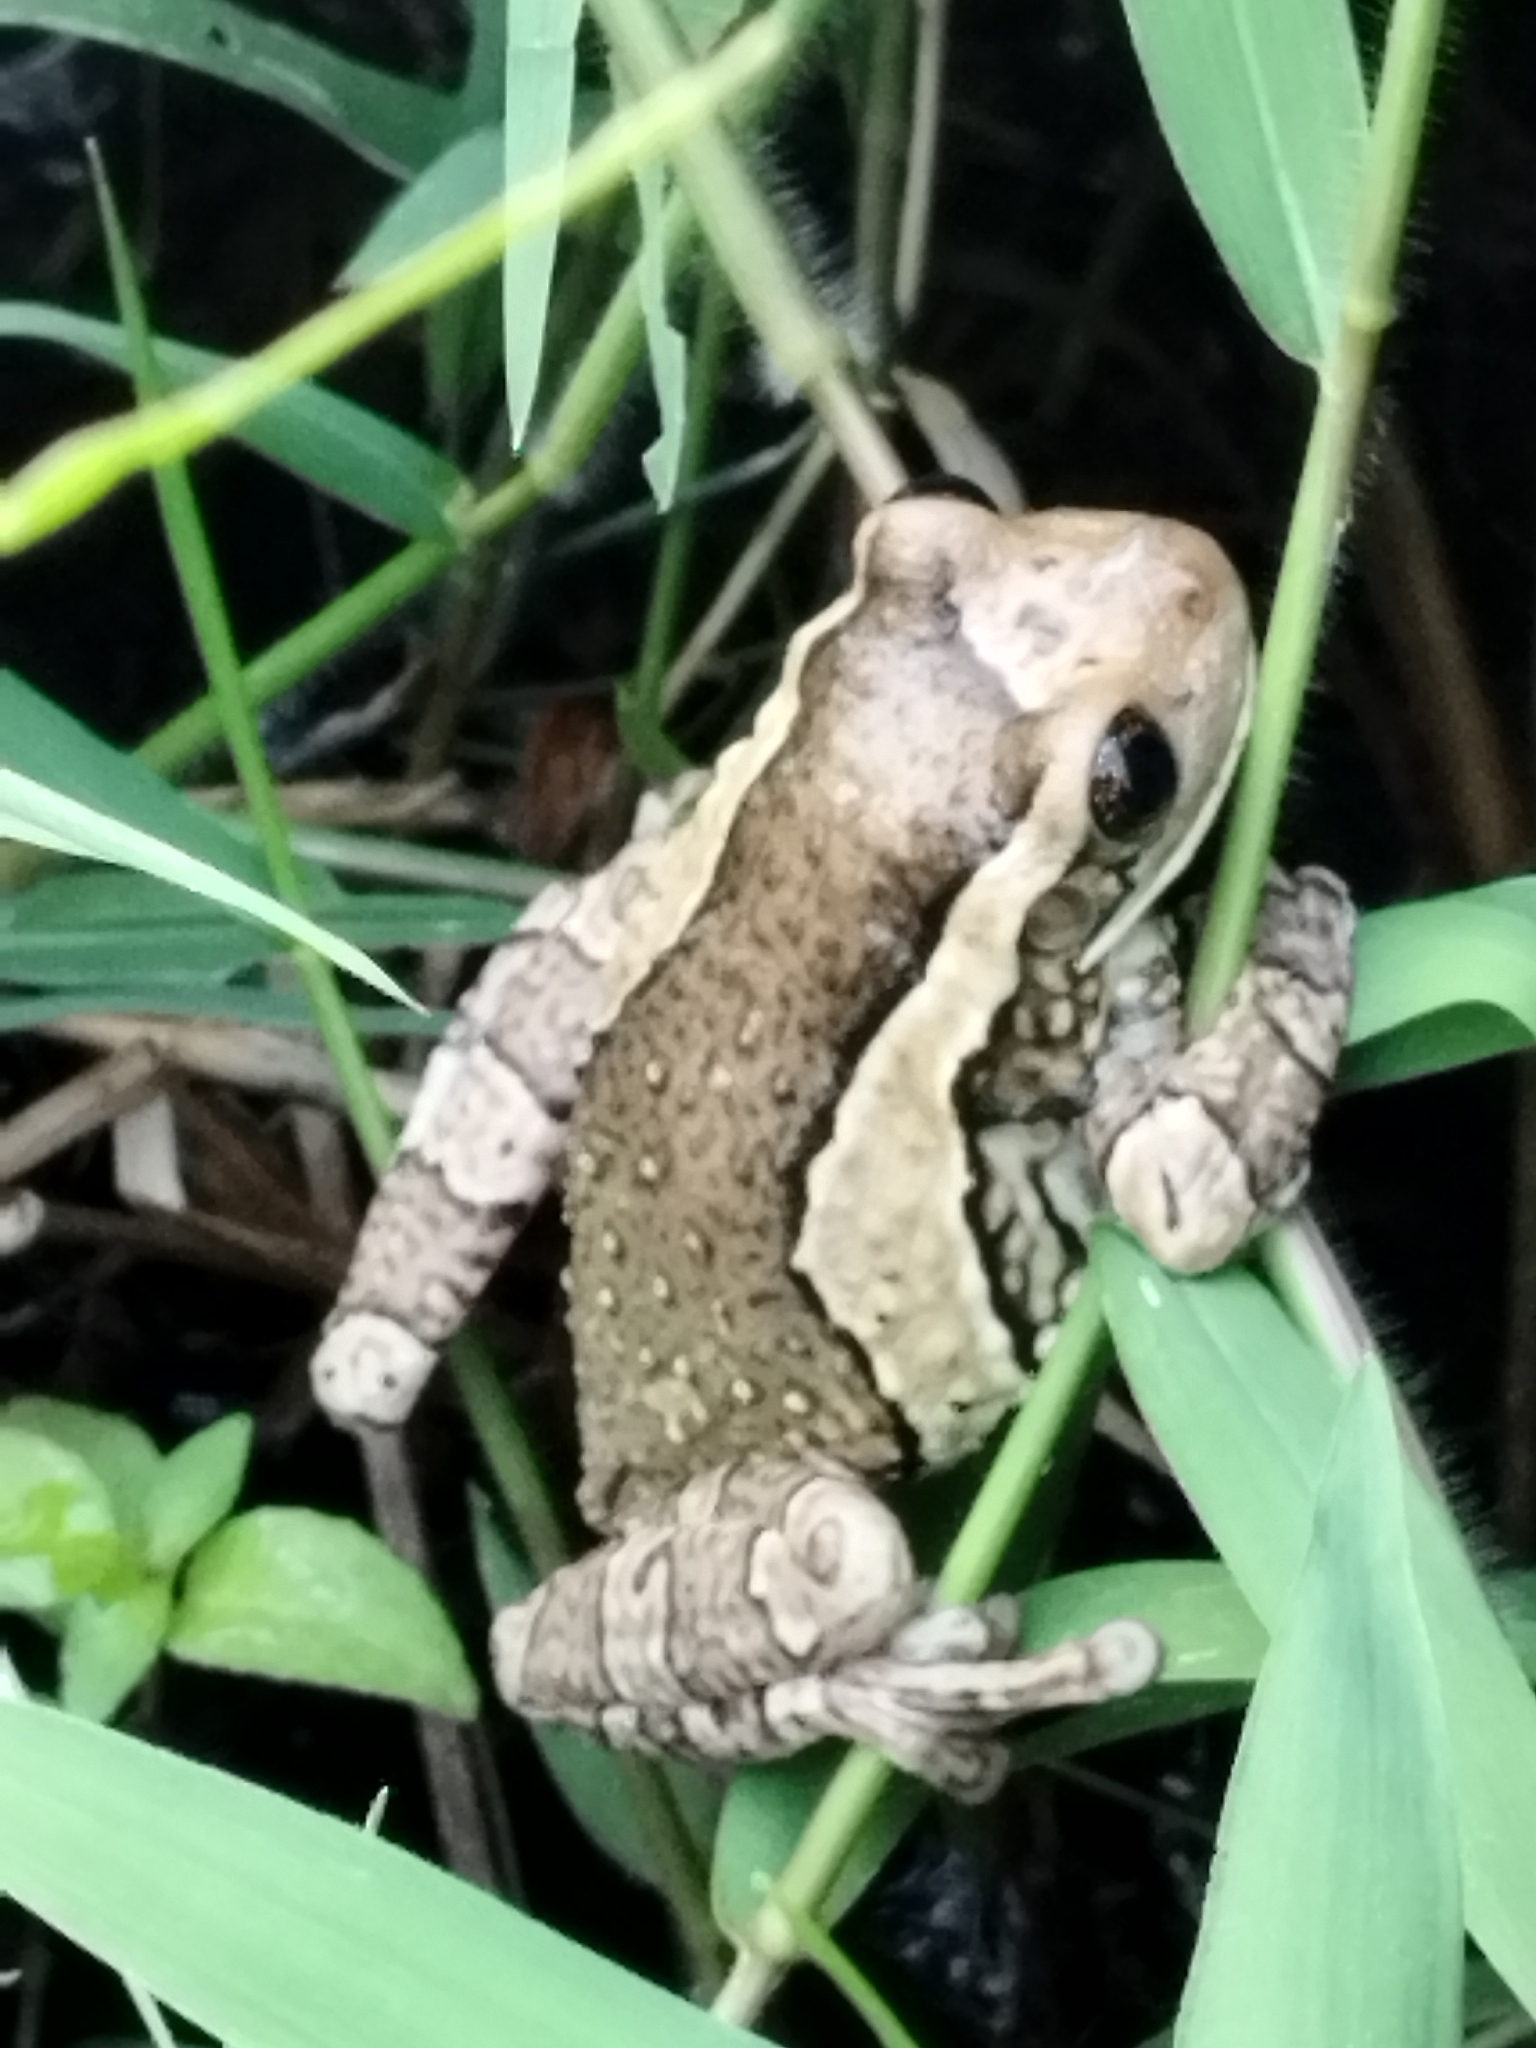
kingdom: Animalia
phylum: Chordata
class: Amphibia
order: Anura
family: Hylidae
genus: Trachycephalus
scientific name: Trachycephalus vermiculatus
